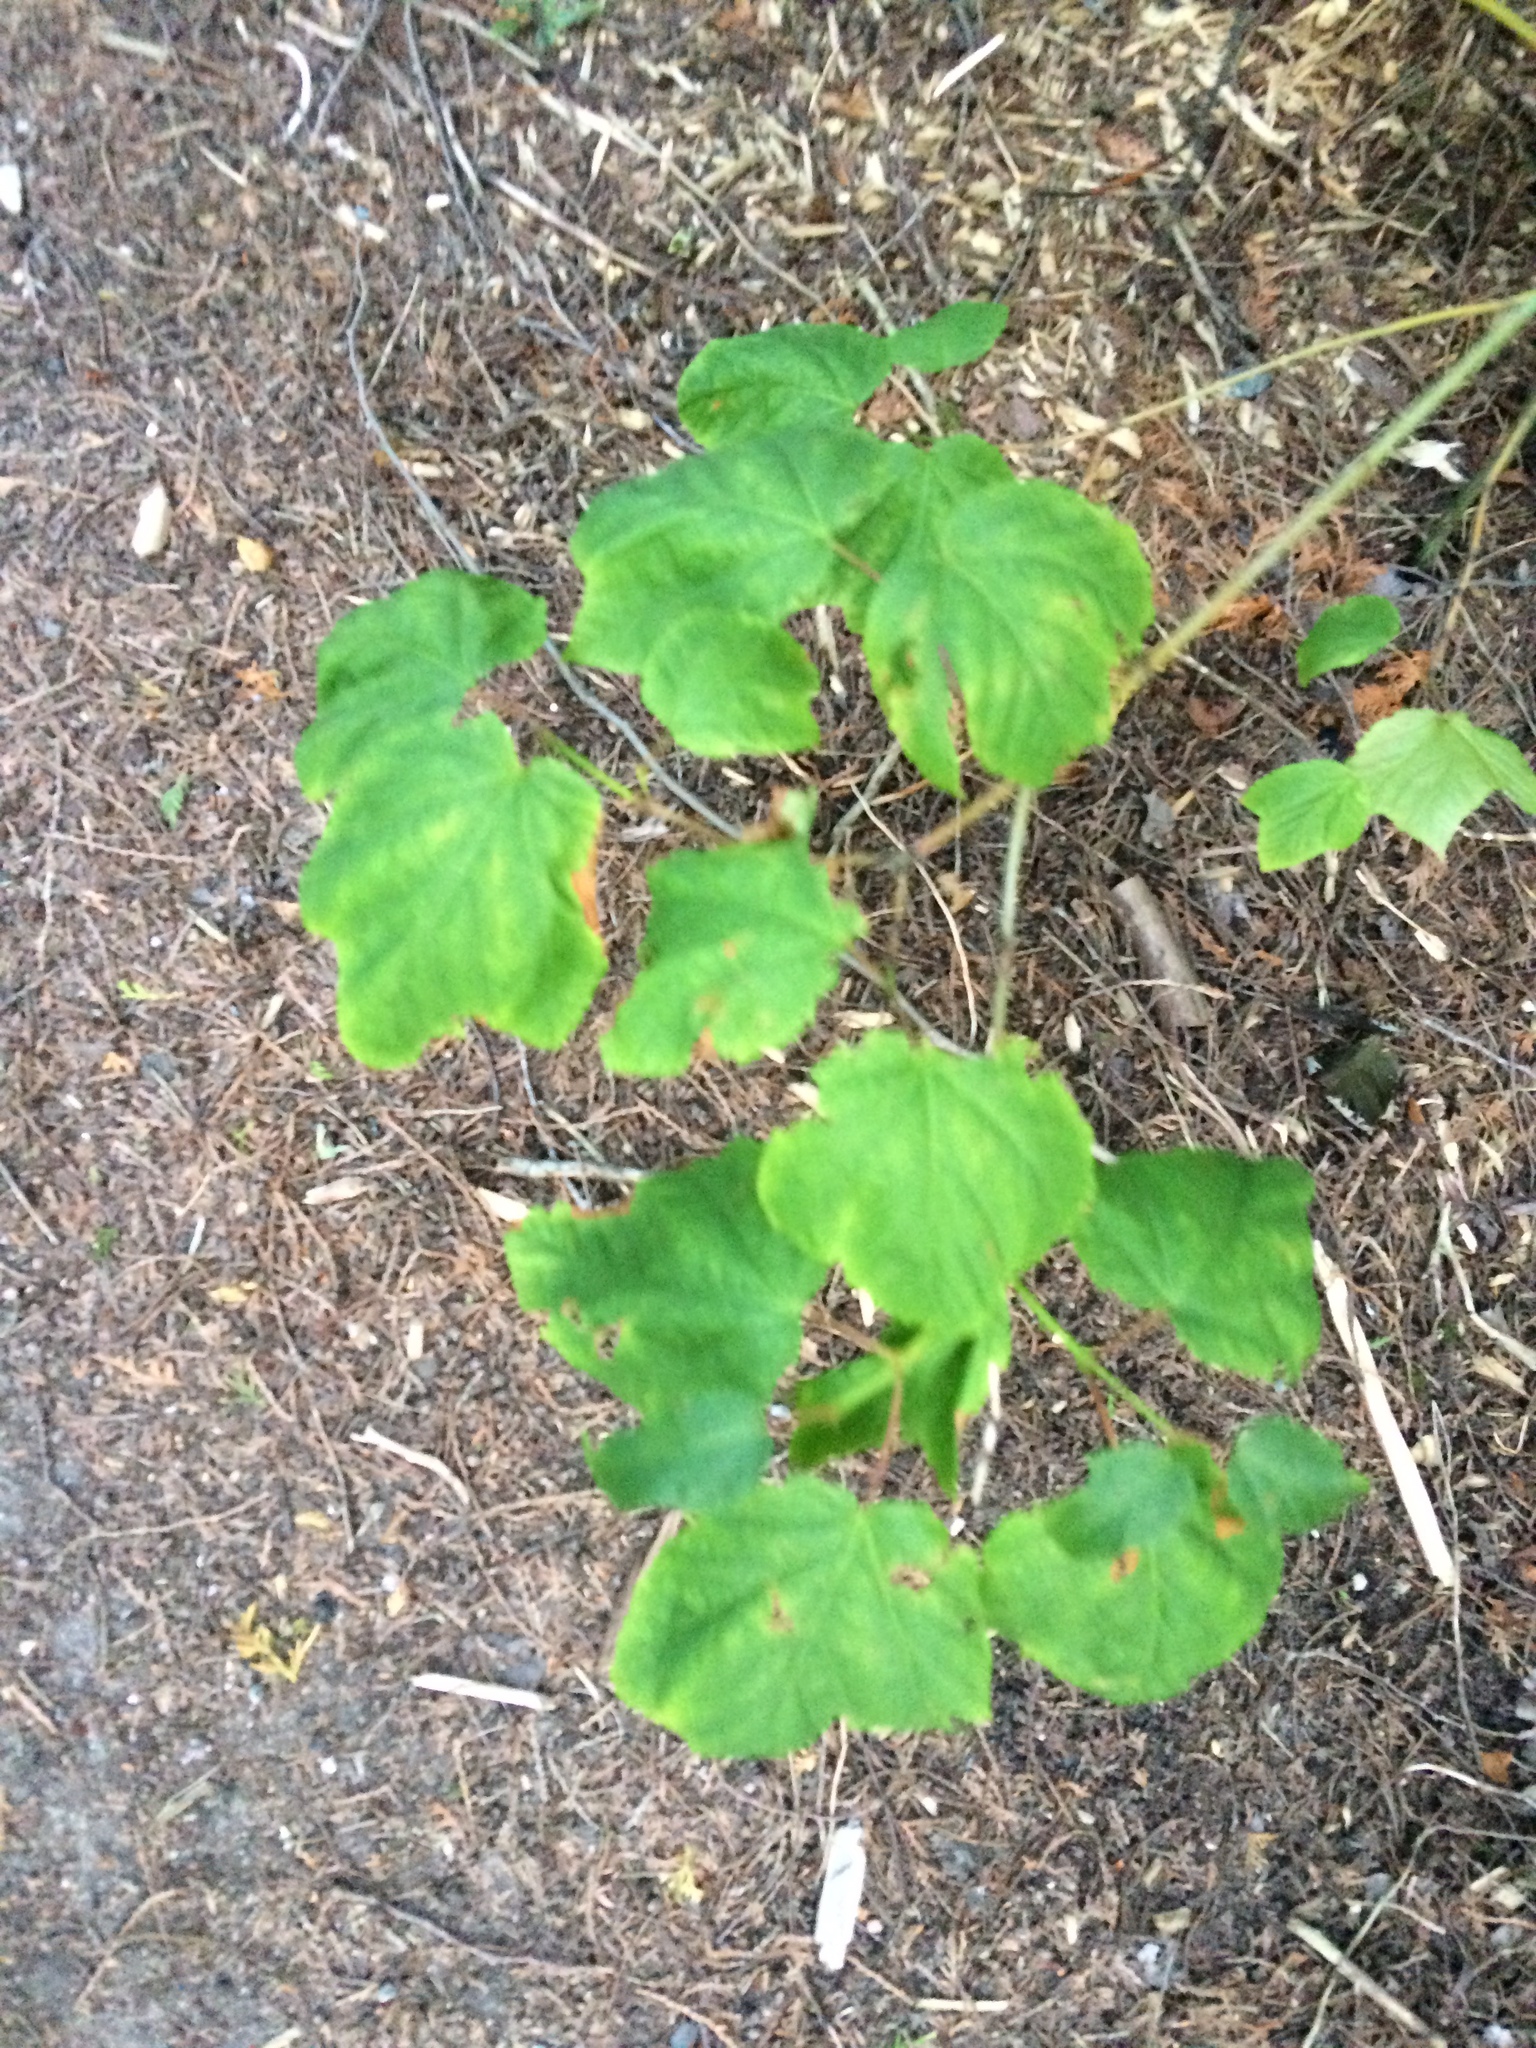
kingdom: Plantae
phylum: Tracheophyta
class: Magnoliopsida
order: Sapindales
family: Sapindaceae
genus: Acer
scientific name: Acer pensylvanicum
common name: Moosewood
